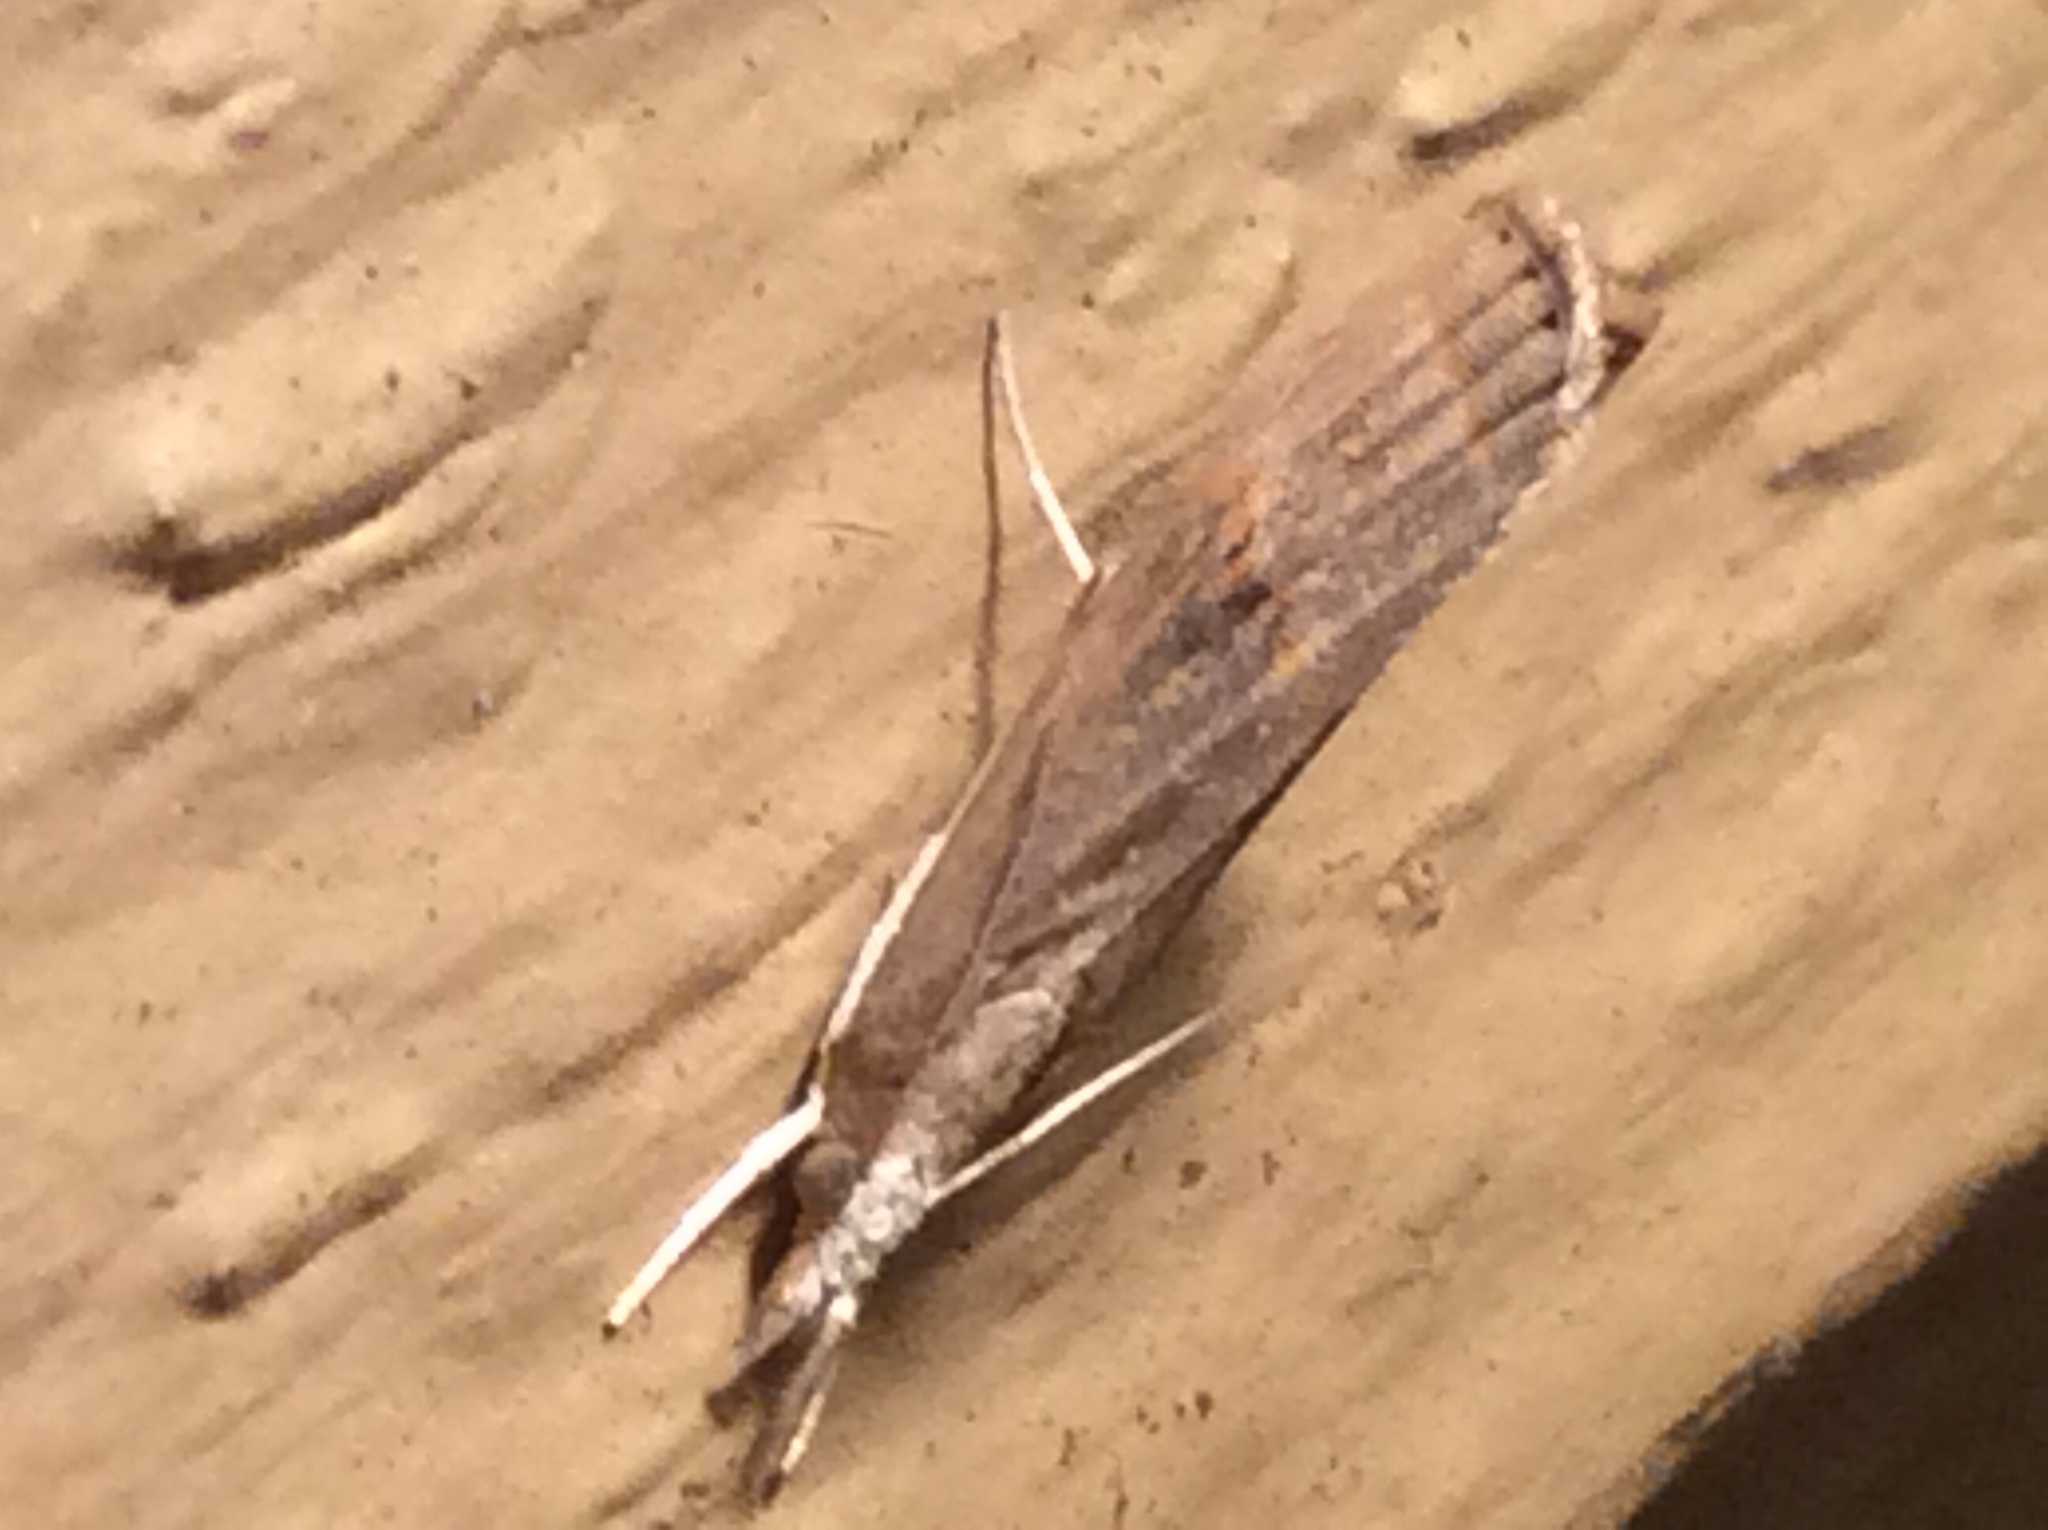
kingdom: Animalia
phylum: Arthropoda
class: Insecta
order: Lepidoptera
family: Crambidae
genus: Parapediasia
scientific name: Parapediasia teterellus
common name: Bluegrass webworm moth
